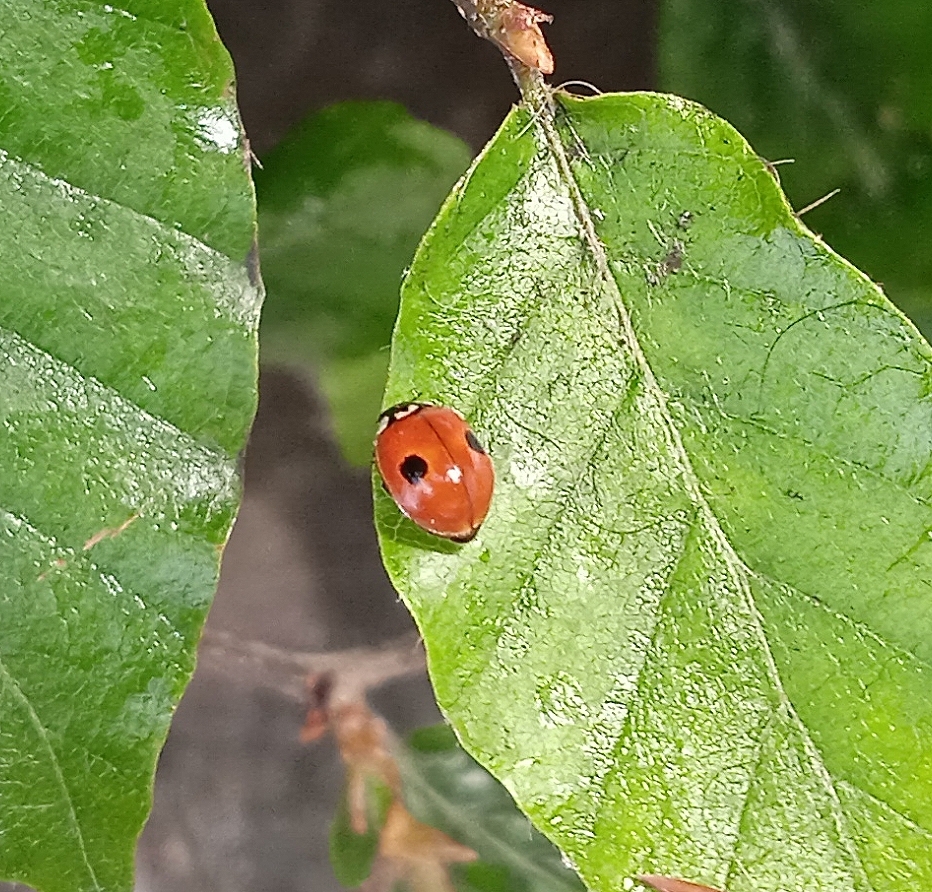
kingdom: Animalia
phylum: Arthropoda
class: Insecta
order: Coleoptera
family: Coccinellidae
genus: Adalia
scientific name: Adalia bipunctata
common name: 2-spot ladybird
